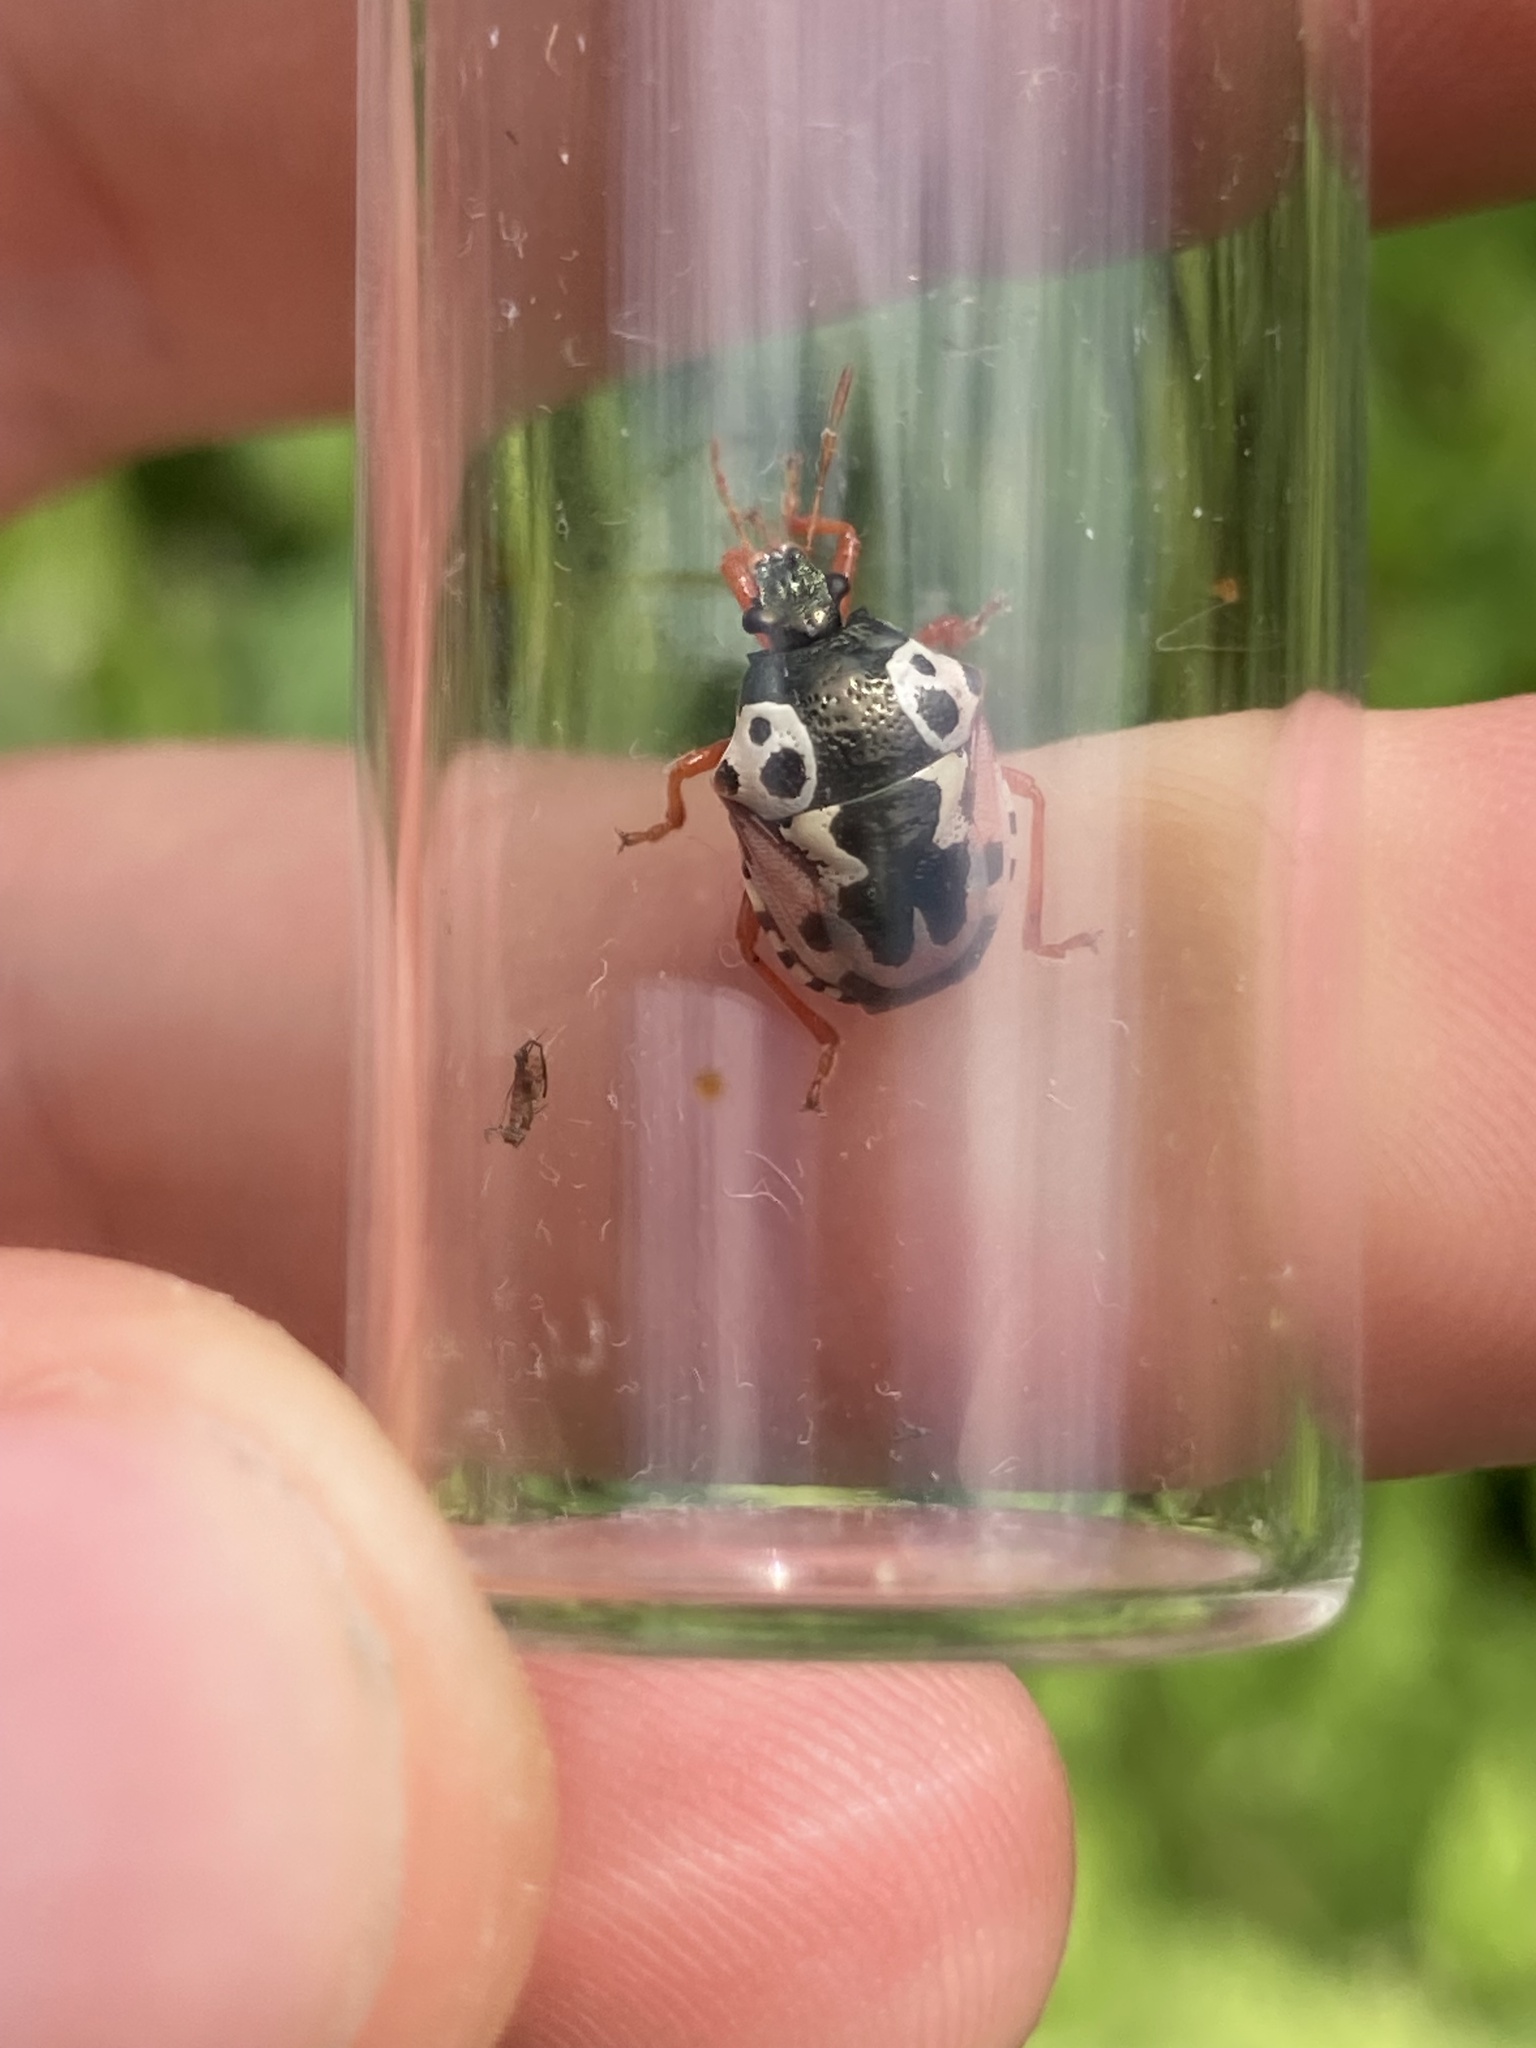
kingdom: Animalia
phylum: Arthropoda
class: Insecta
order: Hemiptera
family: Pentatomidae
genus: Stiretrus
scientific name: Stiretrus anchorago
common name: Anchor stink bug
